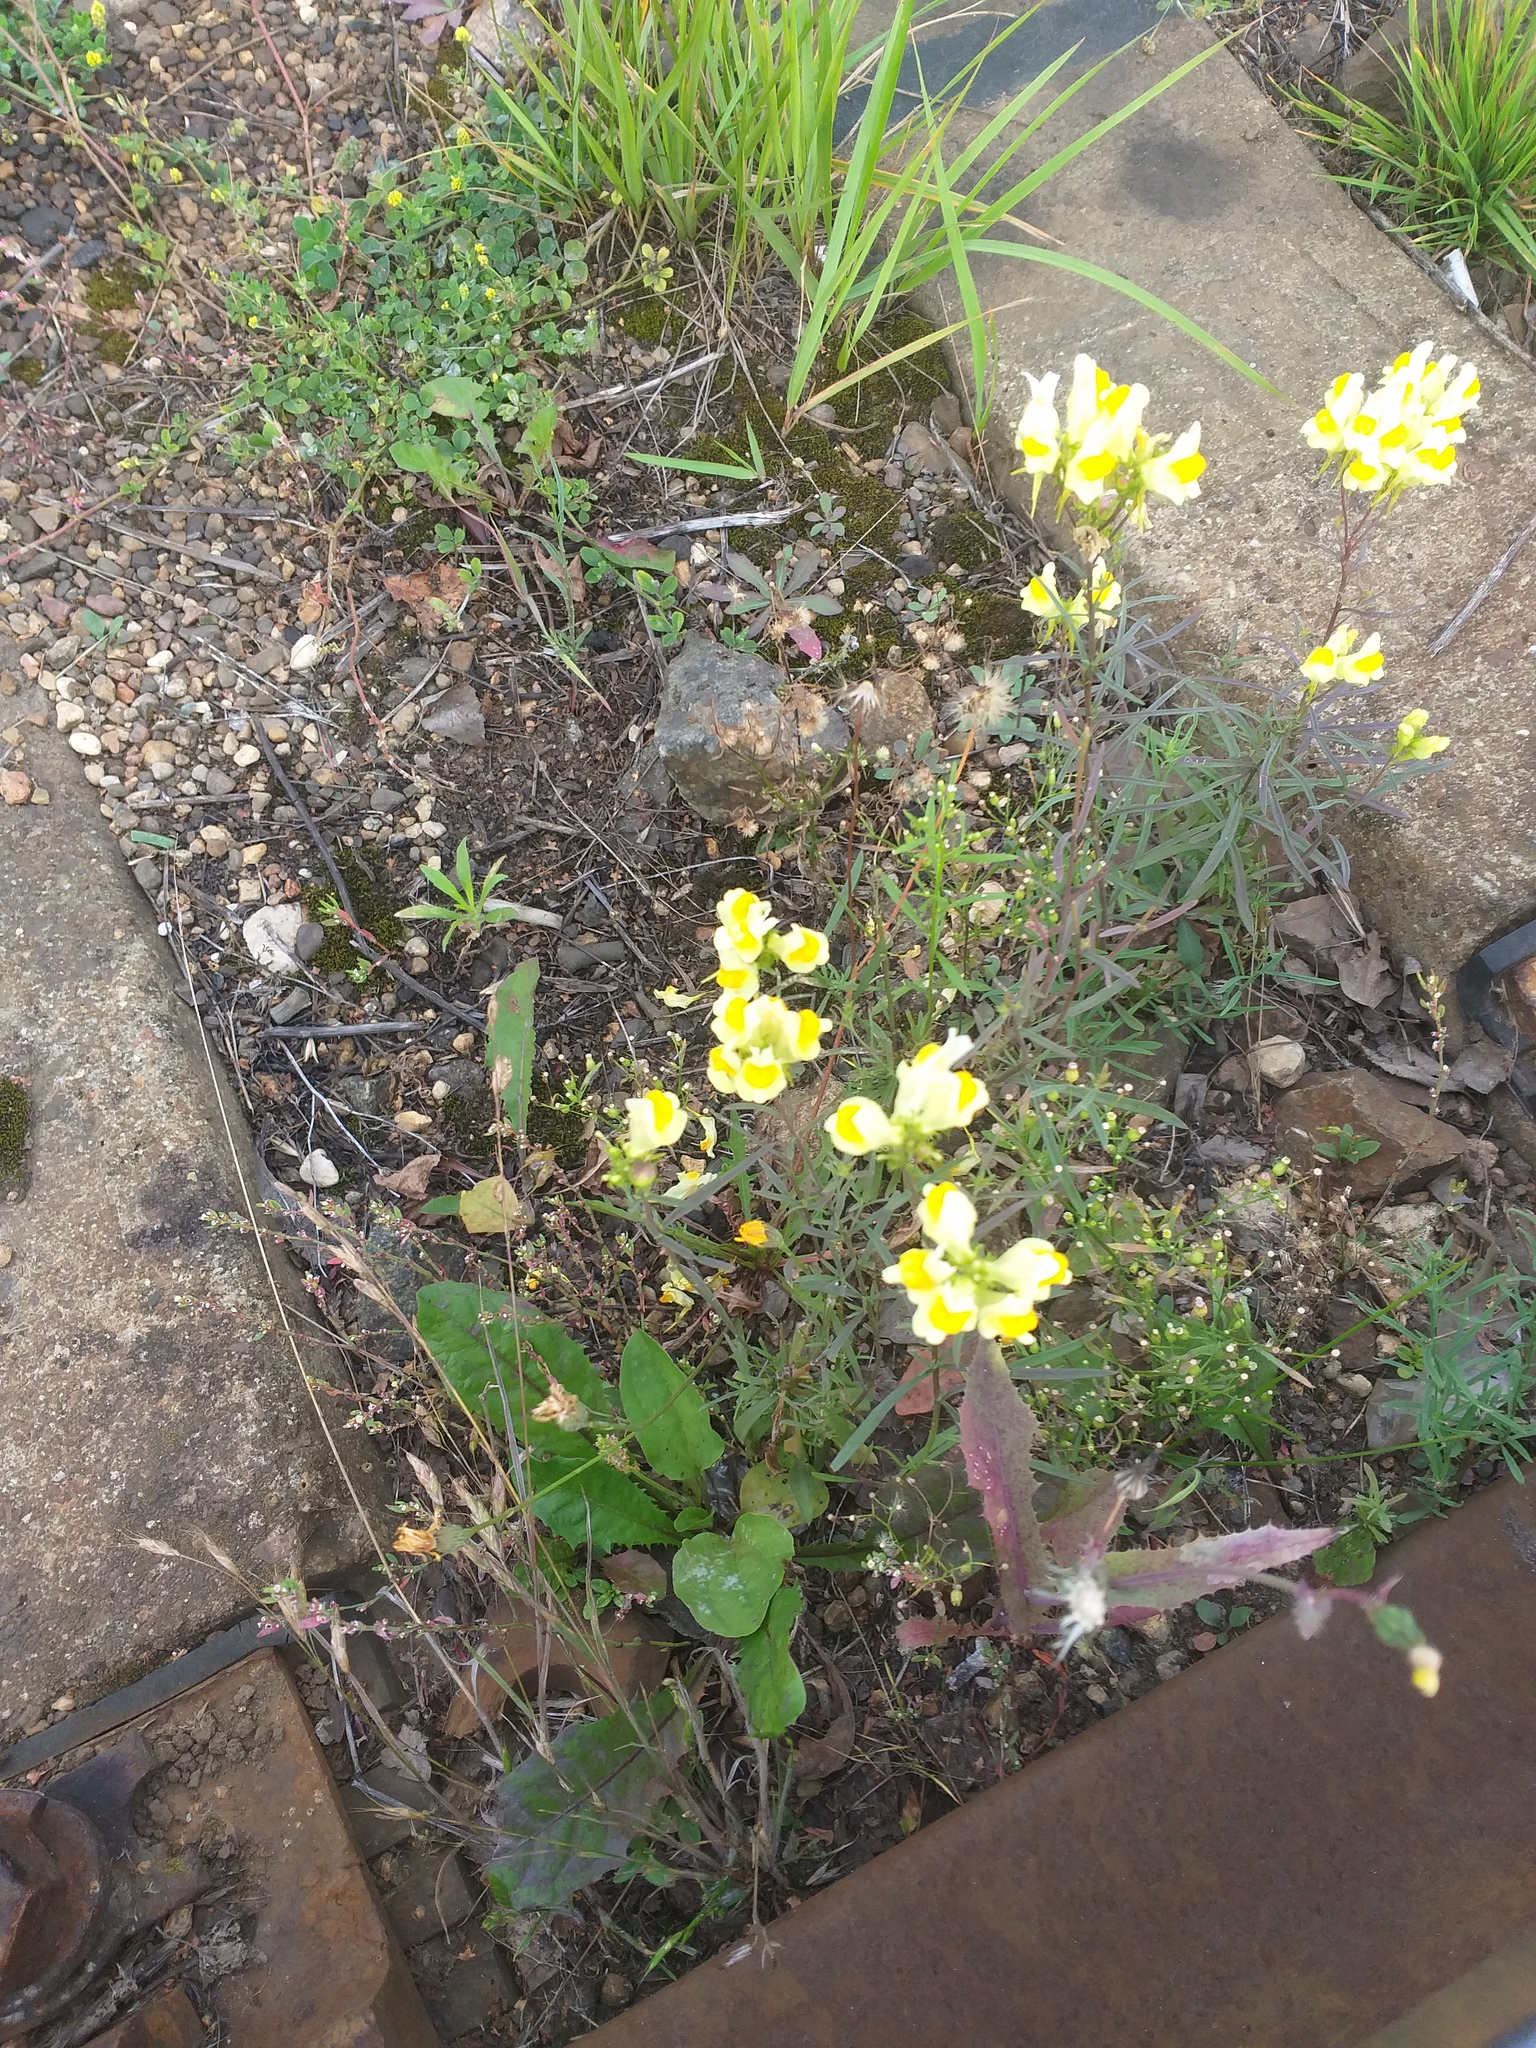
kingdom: Plantae
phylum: Tracheophyta
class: Magnoliopsida
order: Lamiales
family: Plantaginaceae
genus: Linaria
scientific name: Linaria vulgaris
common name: Butter and eggs
